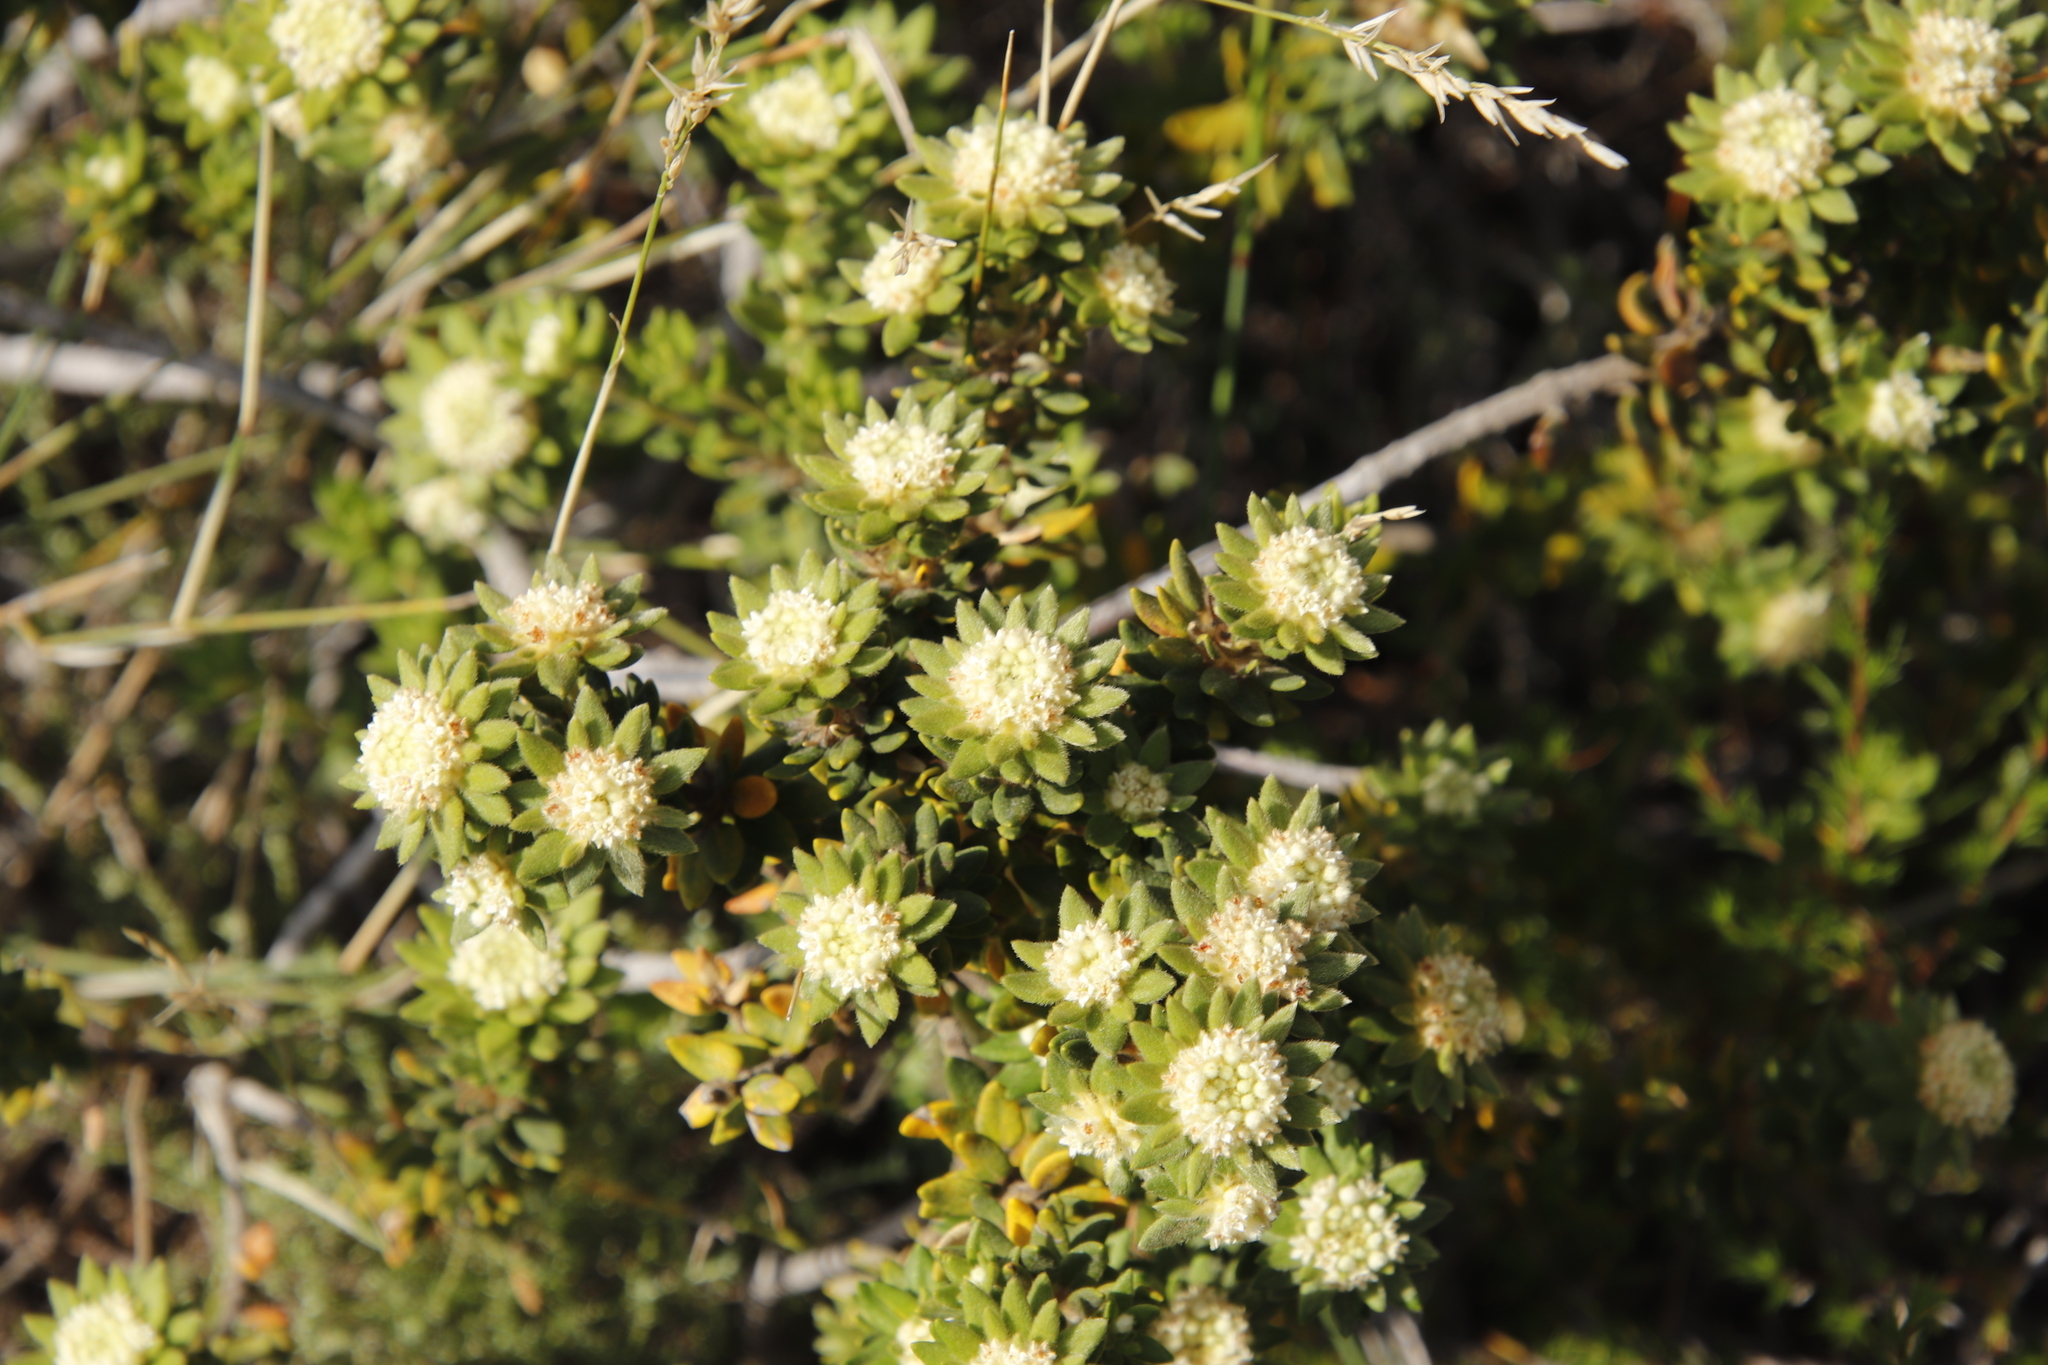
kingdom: Plantae
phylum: Tracheophyta
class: Magnoliopsida
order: Rosales
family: Rhamnaceae
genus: Phylica
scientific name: Phylica dioica
